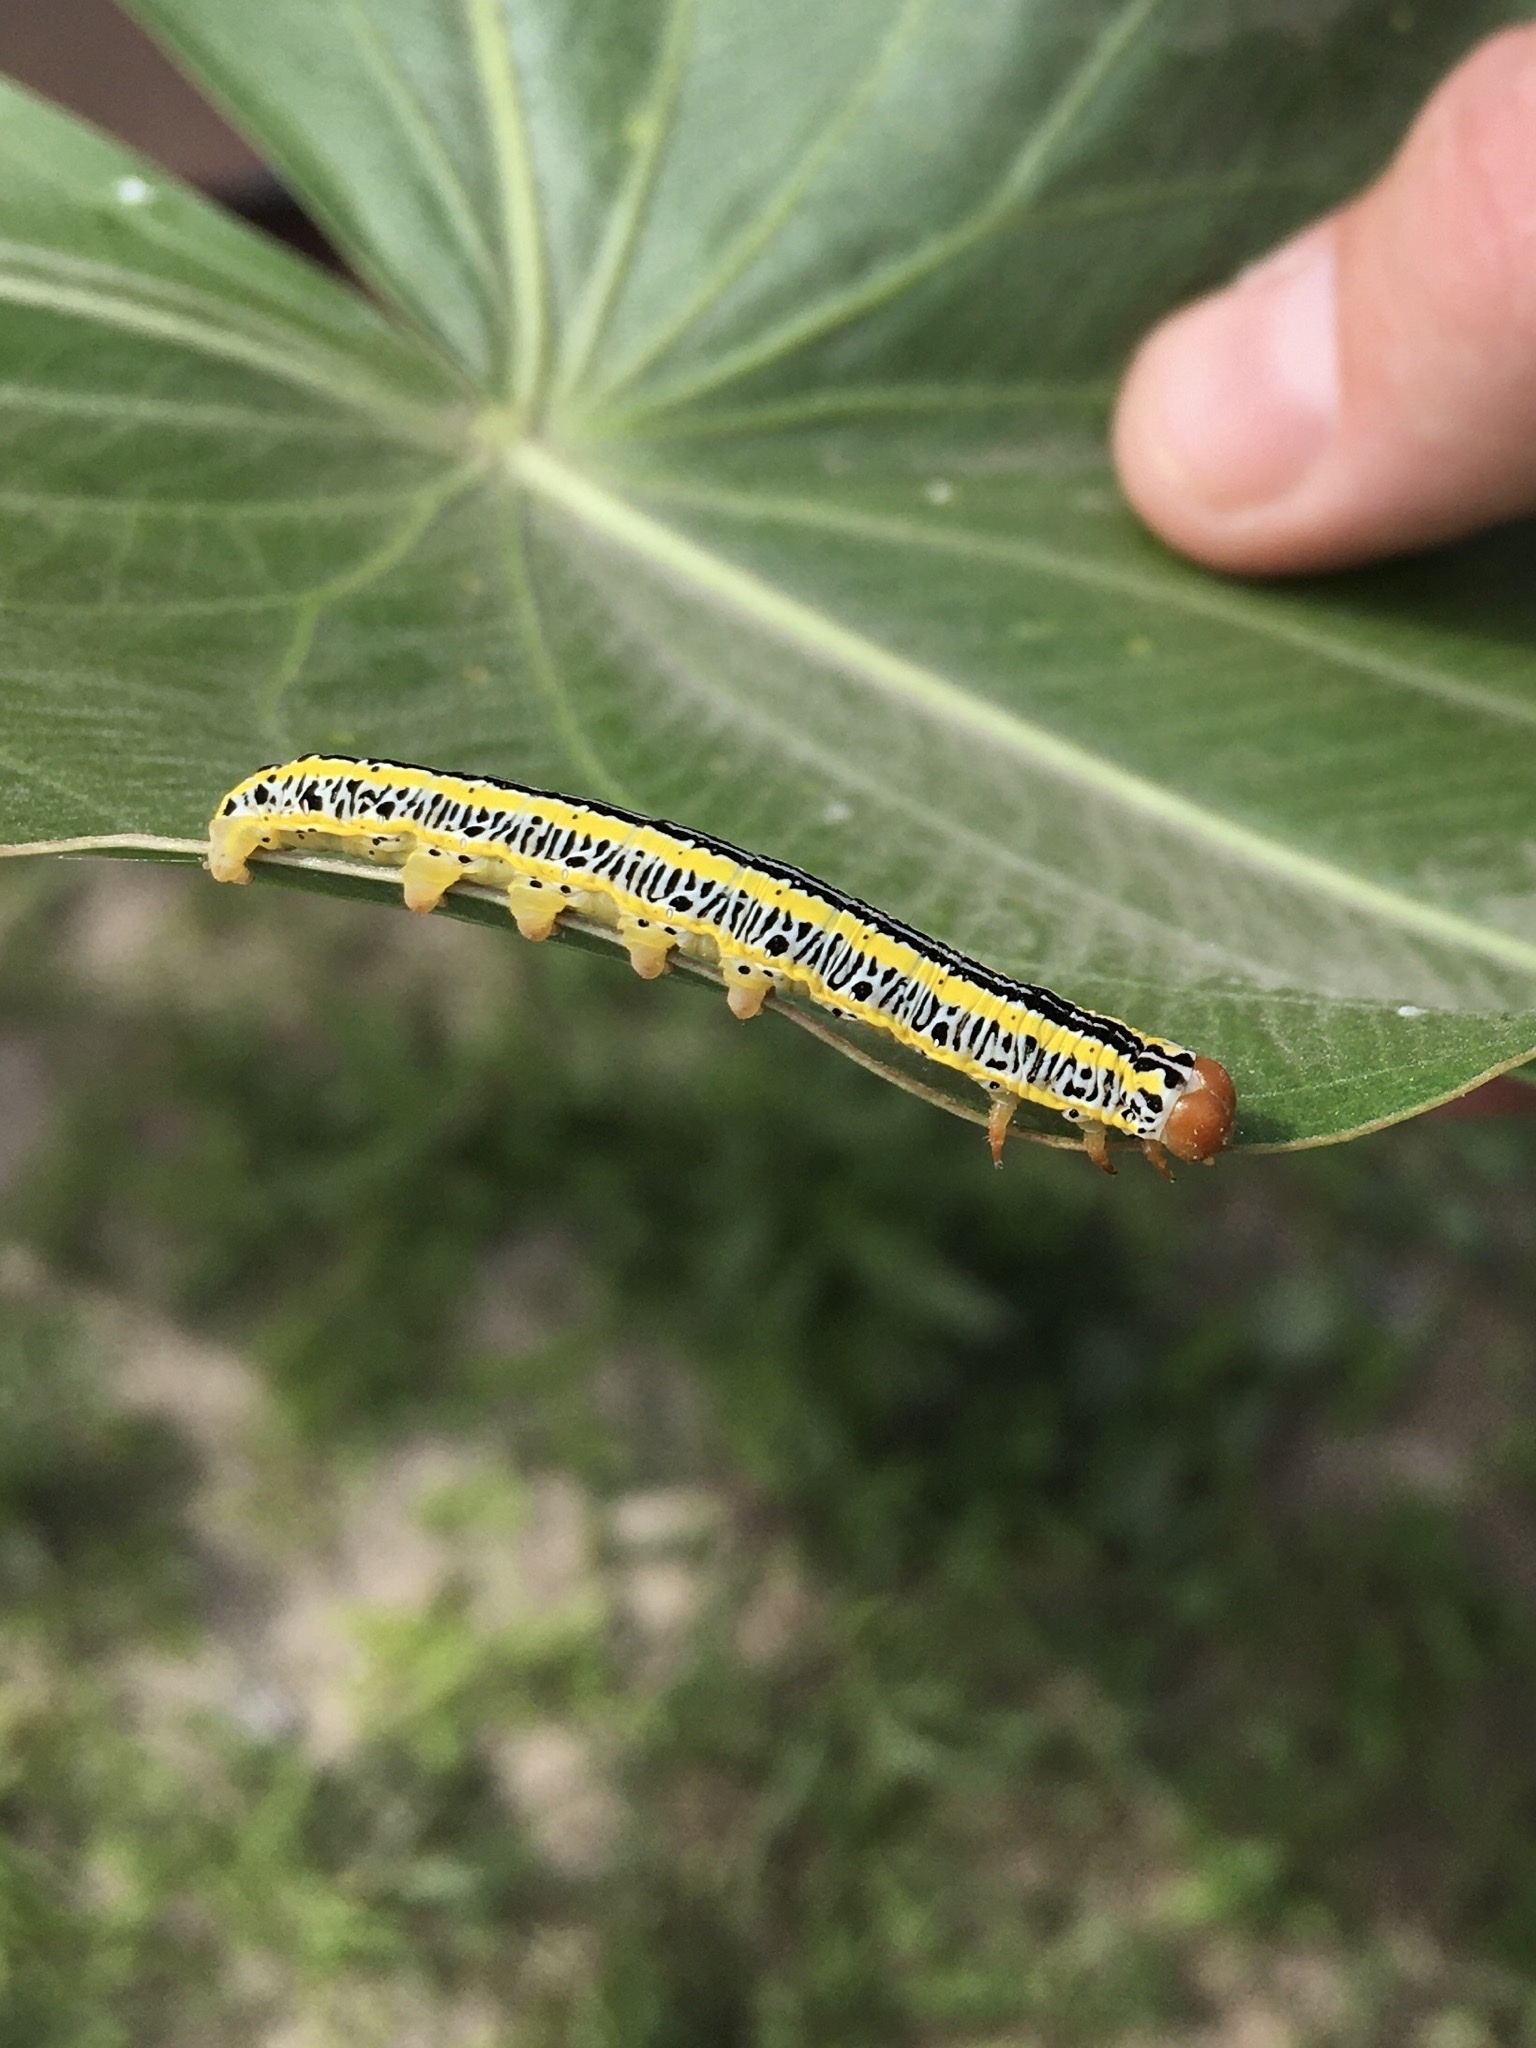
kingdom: Animalia
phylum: Arthropoda
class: Insecta
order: Lepidoptera
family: Noctuidae
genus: Melanchra
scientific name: Melanchra picta
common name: Zebra caterpillar
